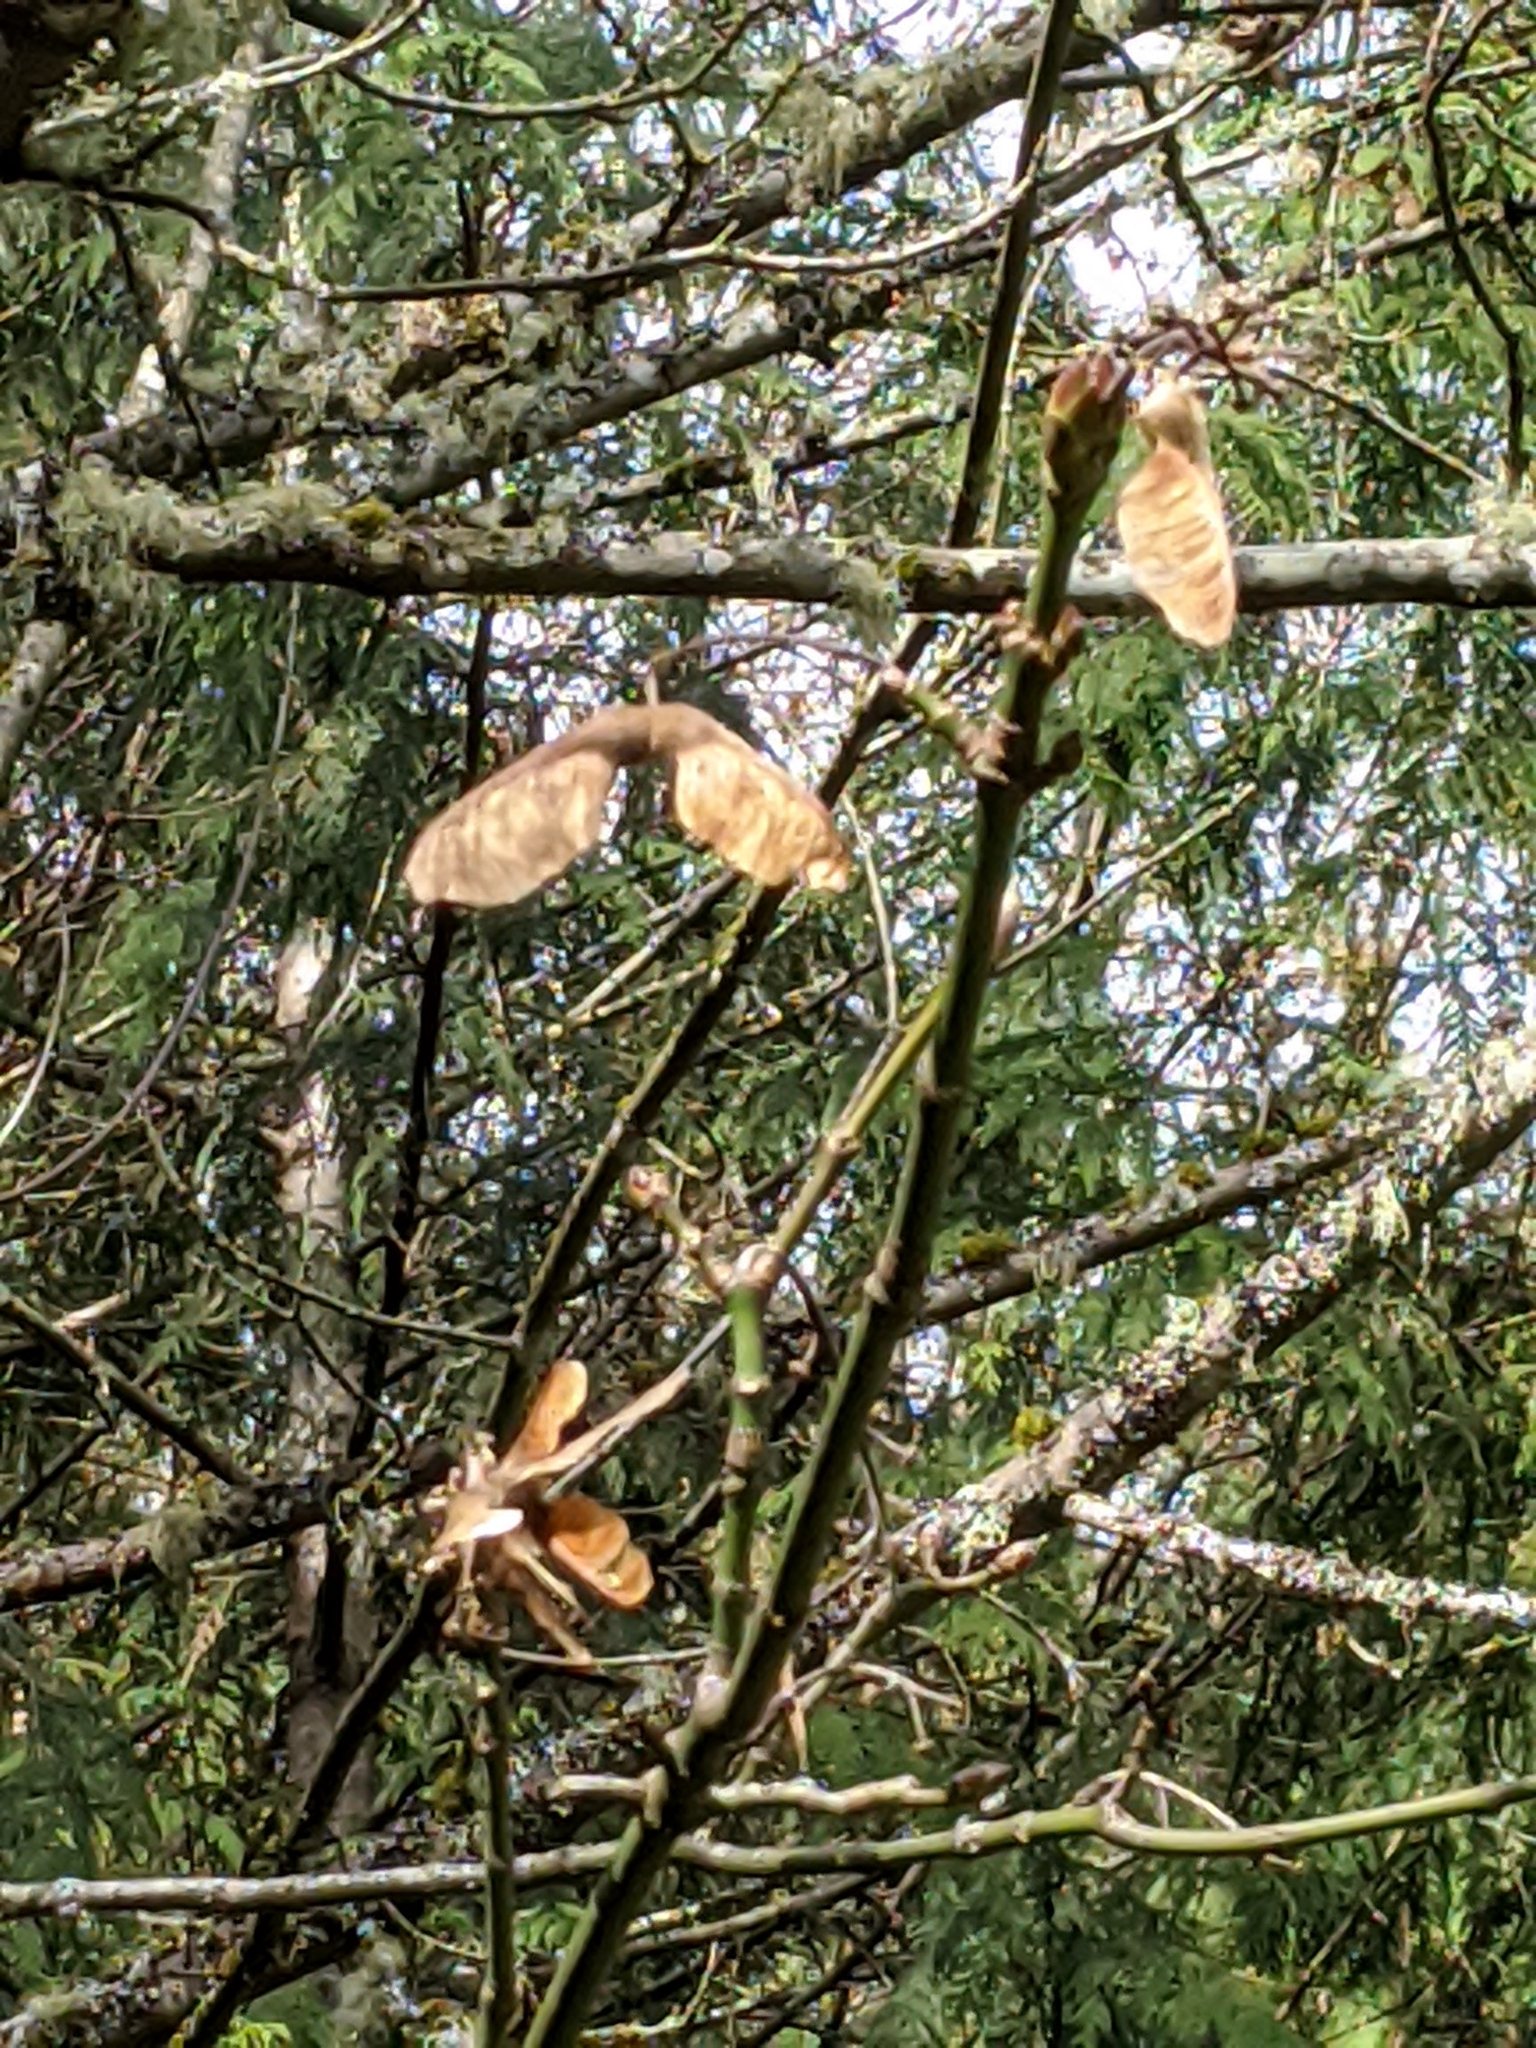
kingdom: Plantae
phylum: Tracheophyta
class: Magnoliopsida
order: Sapindales
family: Sapindaceae
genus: Acer
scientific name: Acer macrophyllum
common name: Oregon maple
